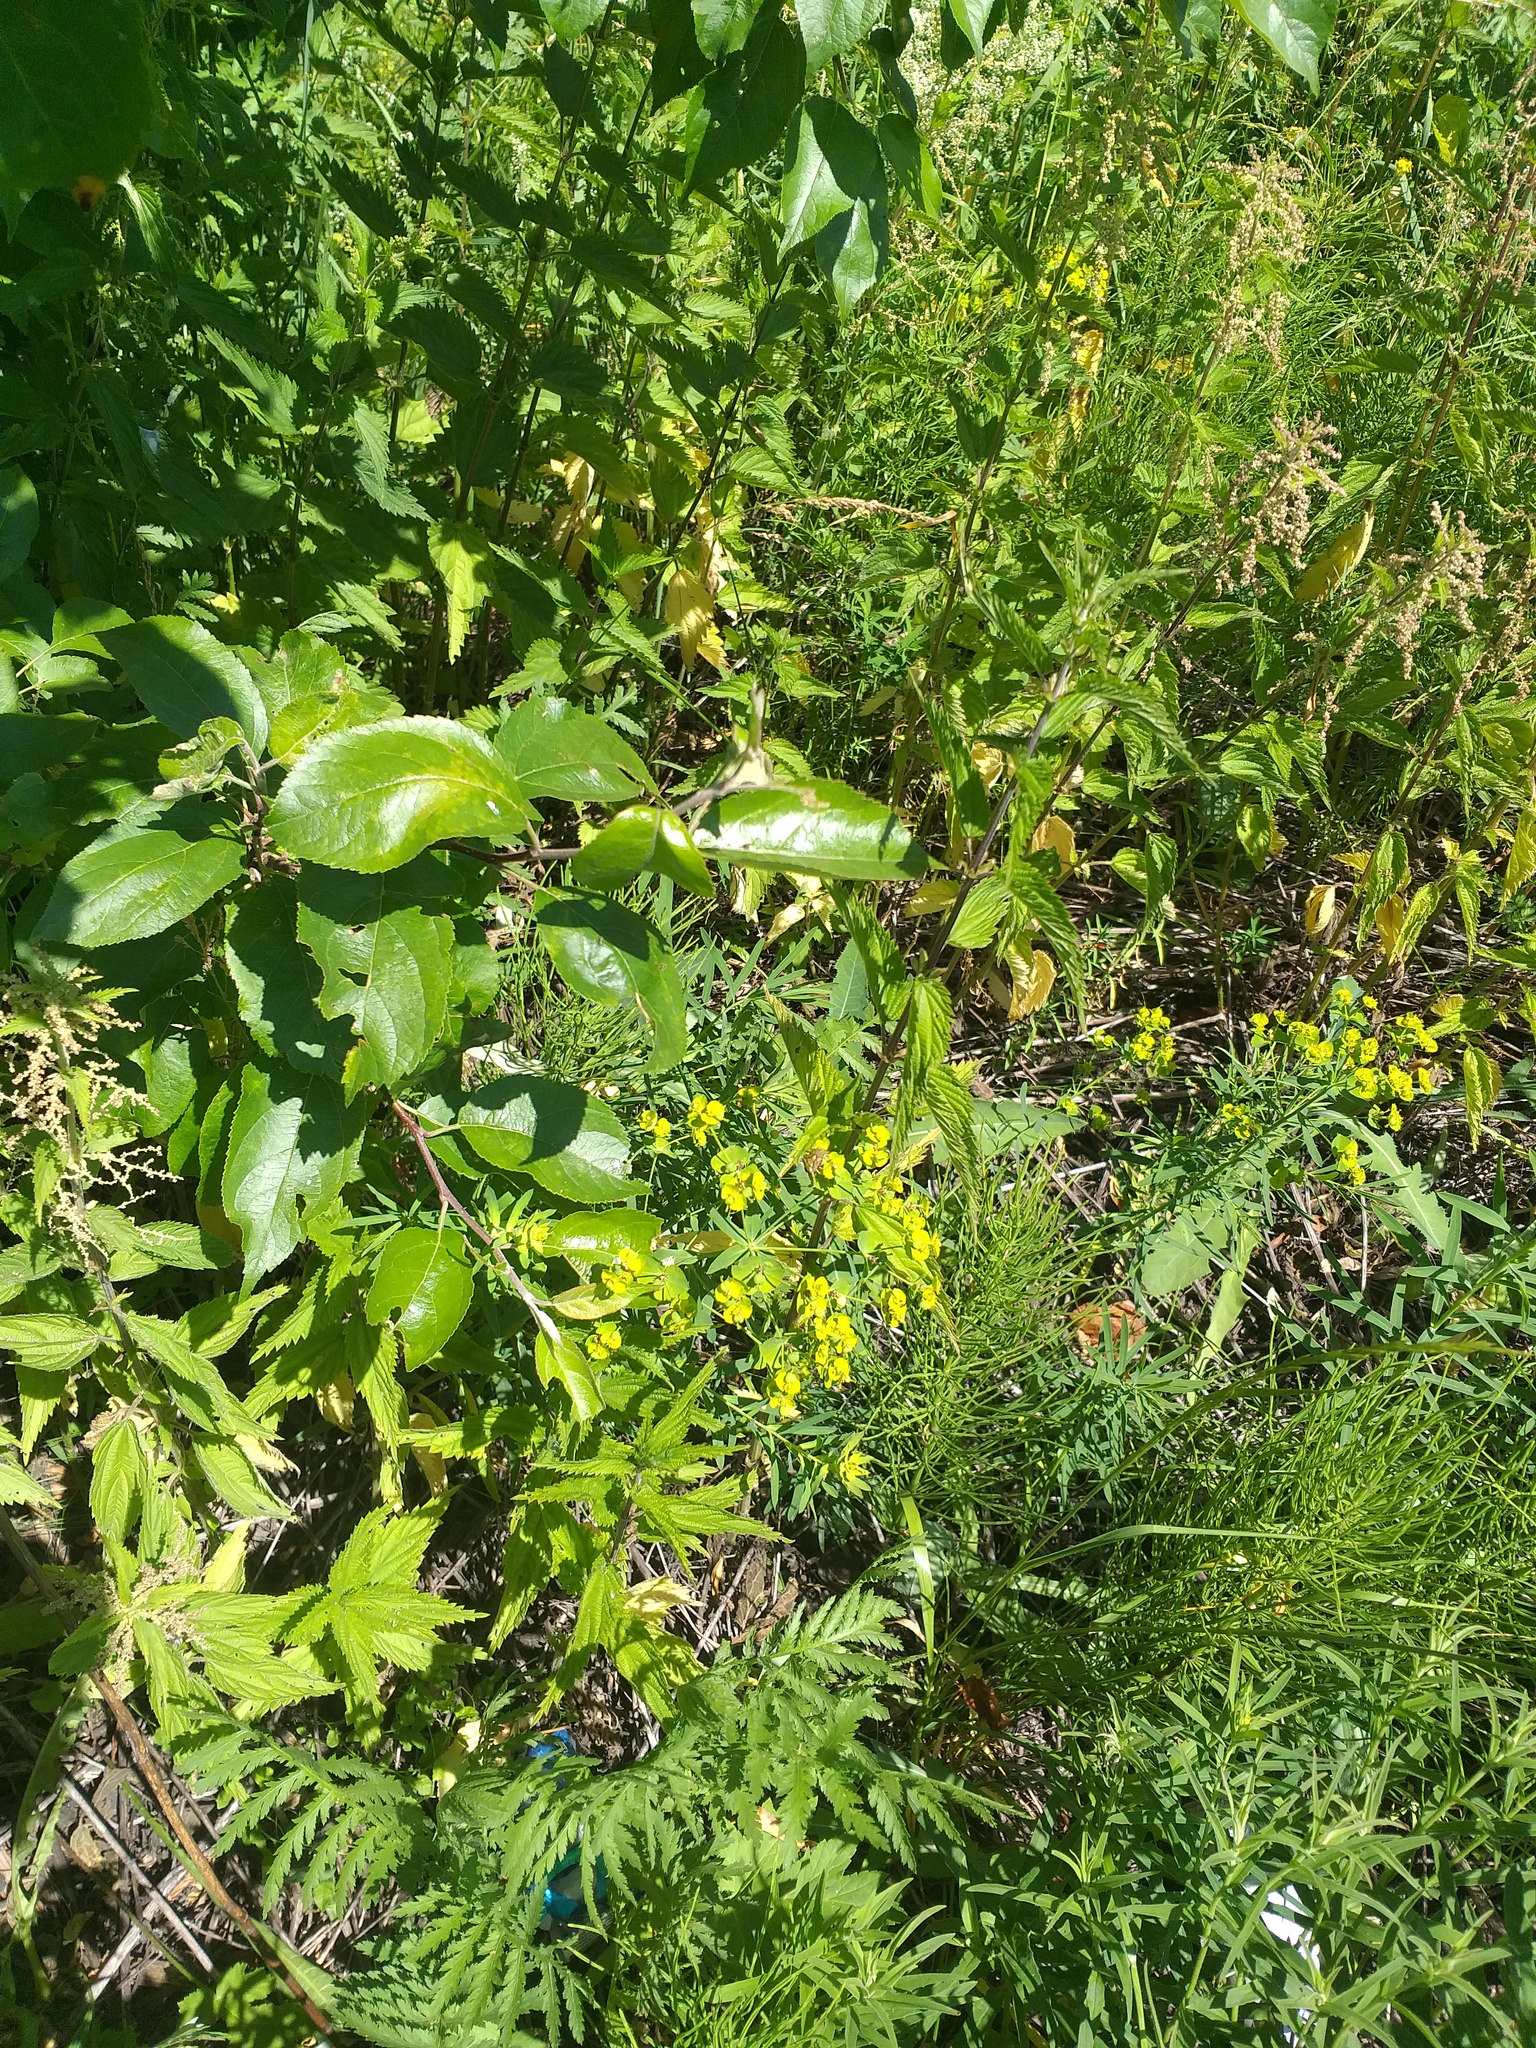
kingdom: Plantae
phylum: Tracheophyta
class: Magnoliopsida
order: Rosales
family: Rosaceae
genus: Malus
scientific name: Malus domestica
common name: Apple
